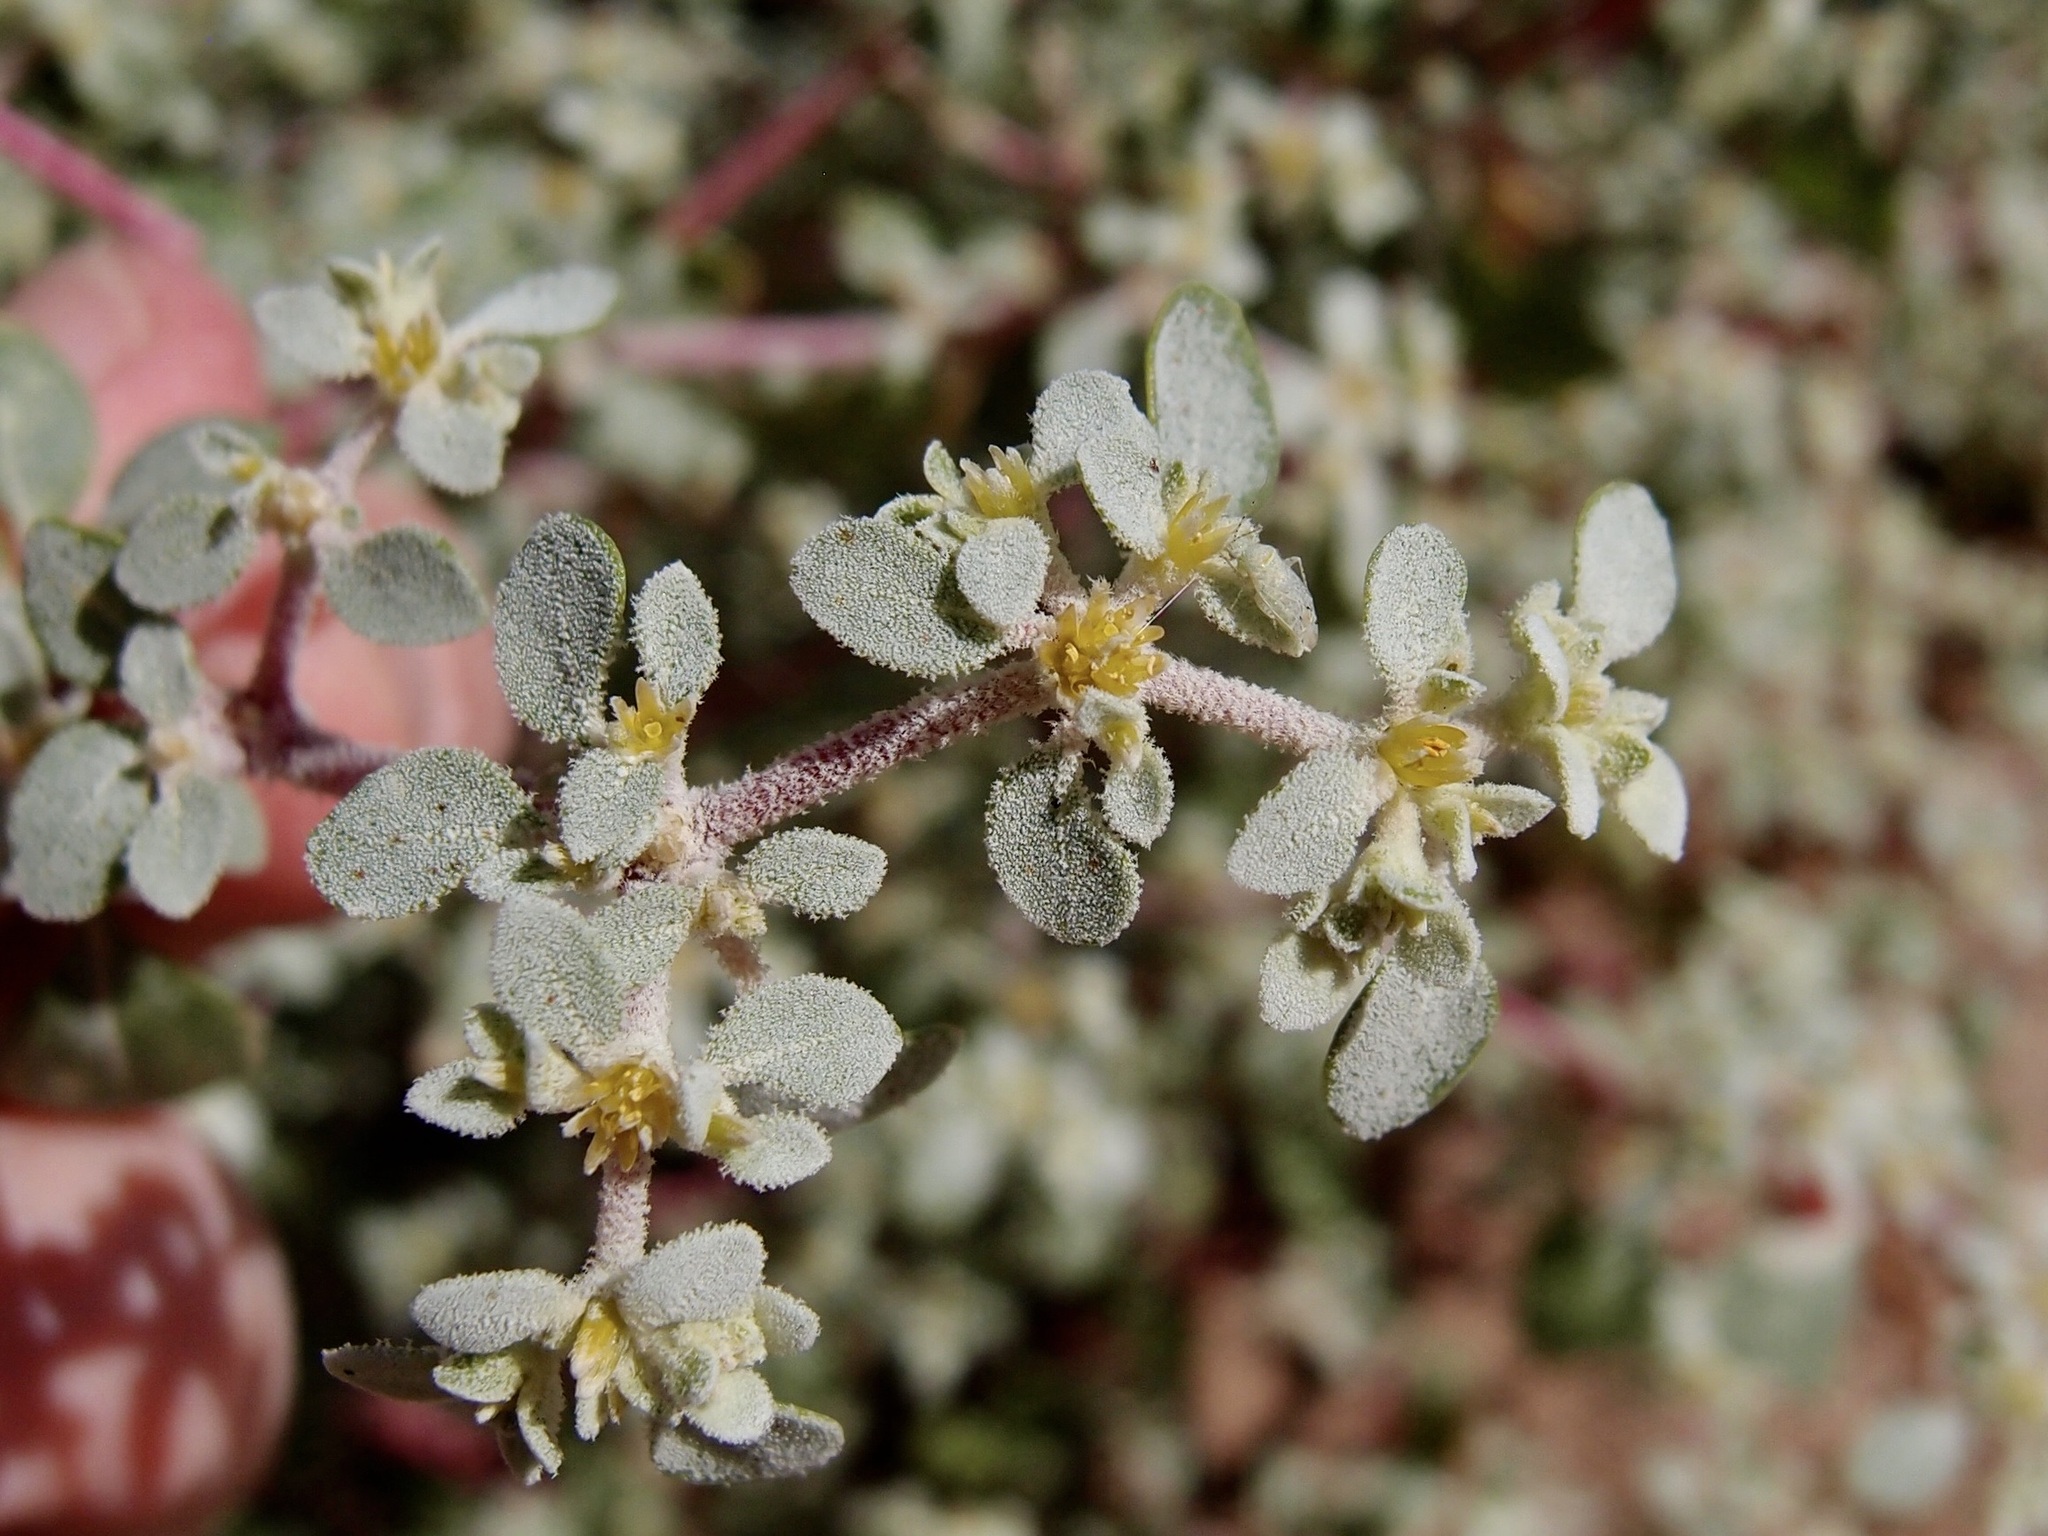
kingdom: Plantae
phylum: Tracheophyta
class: Magnoliopsida
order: Caryophyllales
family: Amaranthaceae
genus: Tidestromia
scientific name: Tidestromia lanuginosa
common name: Woolly tidestromia
